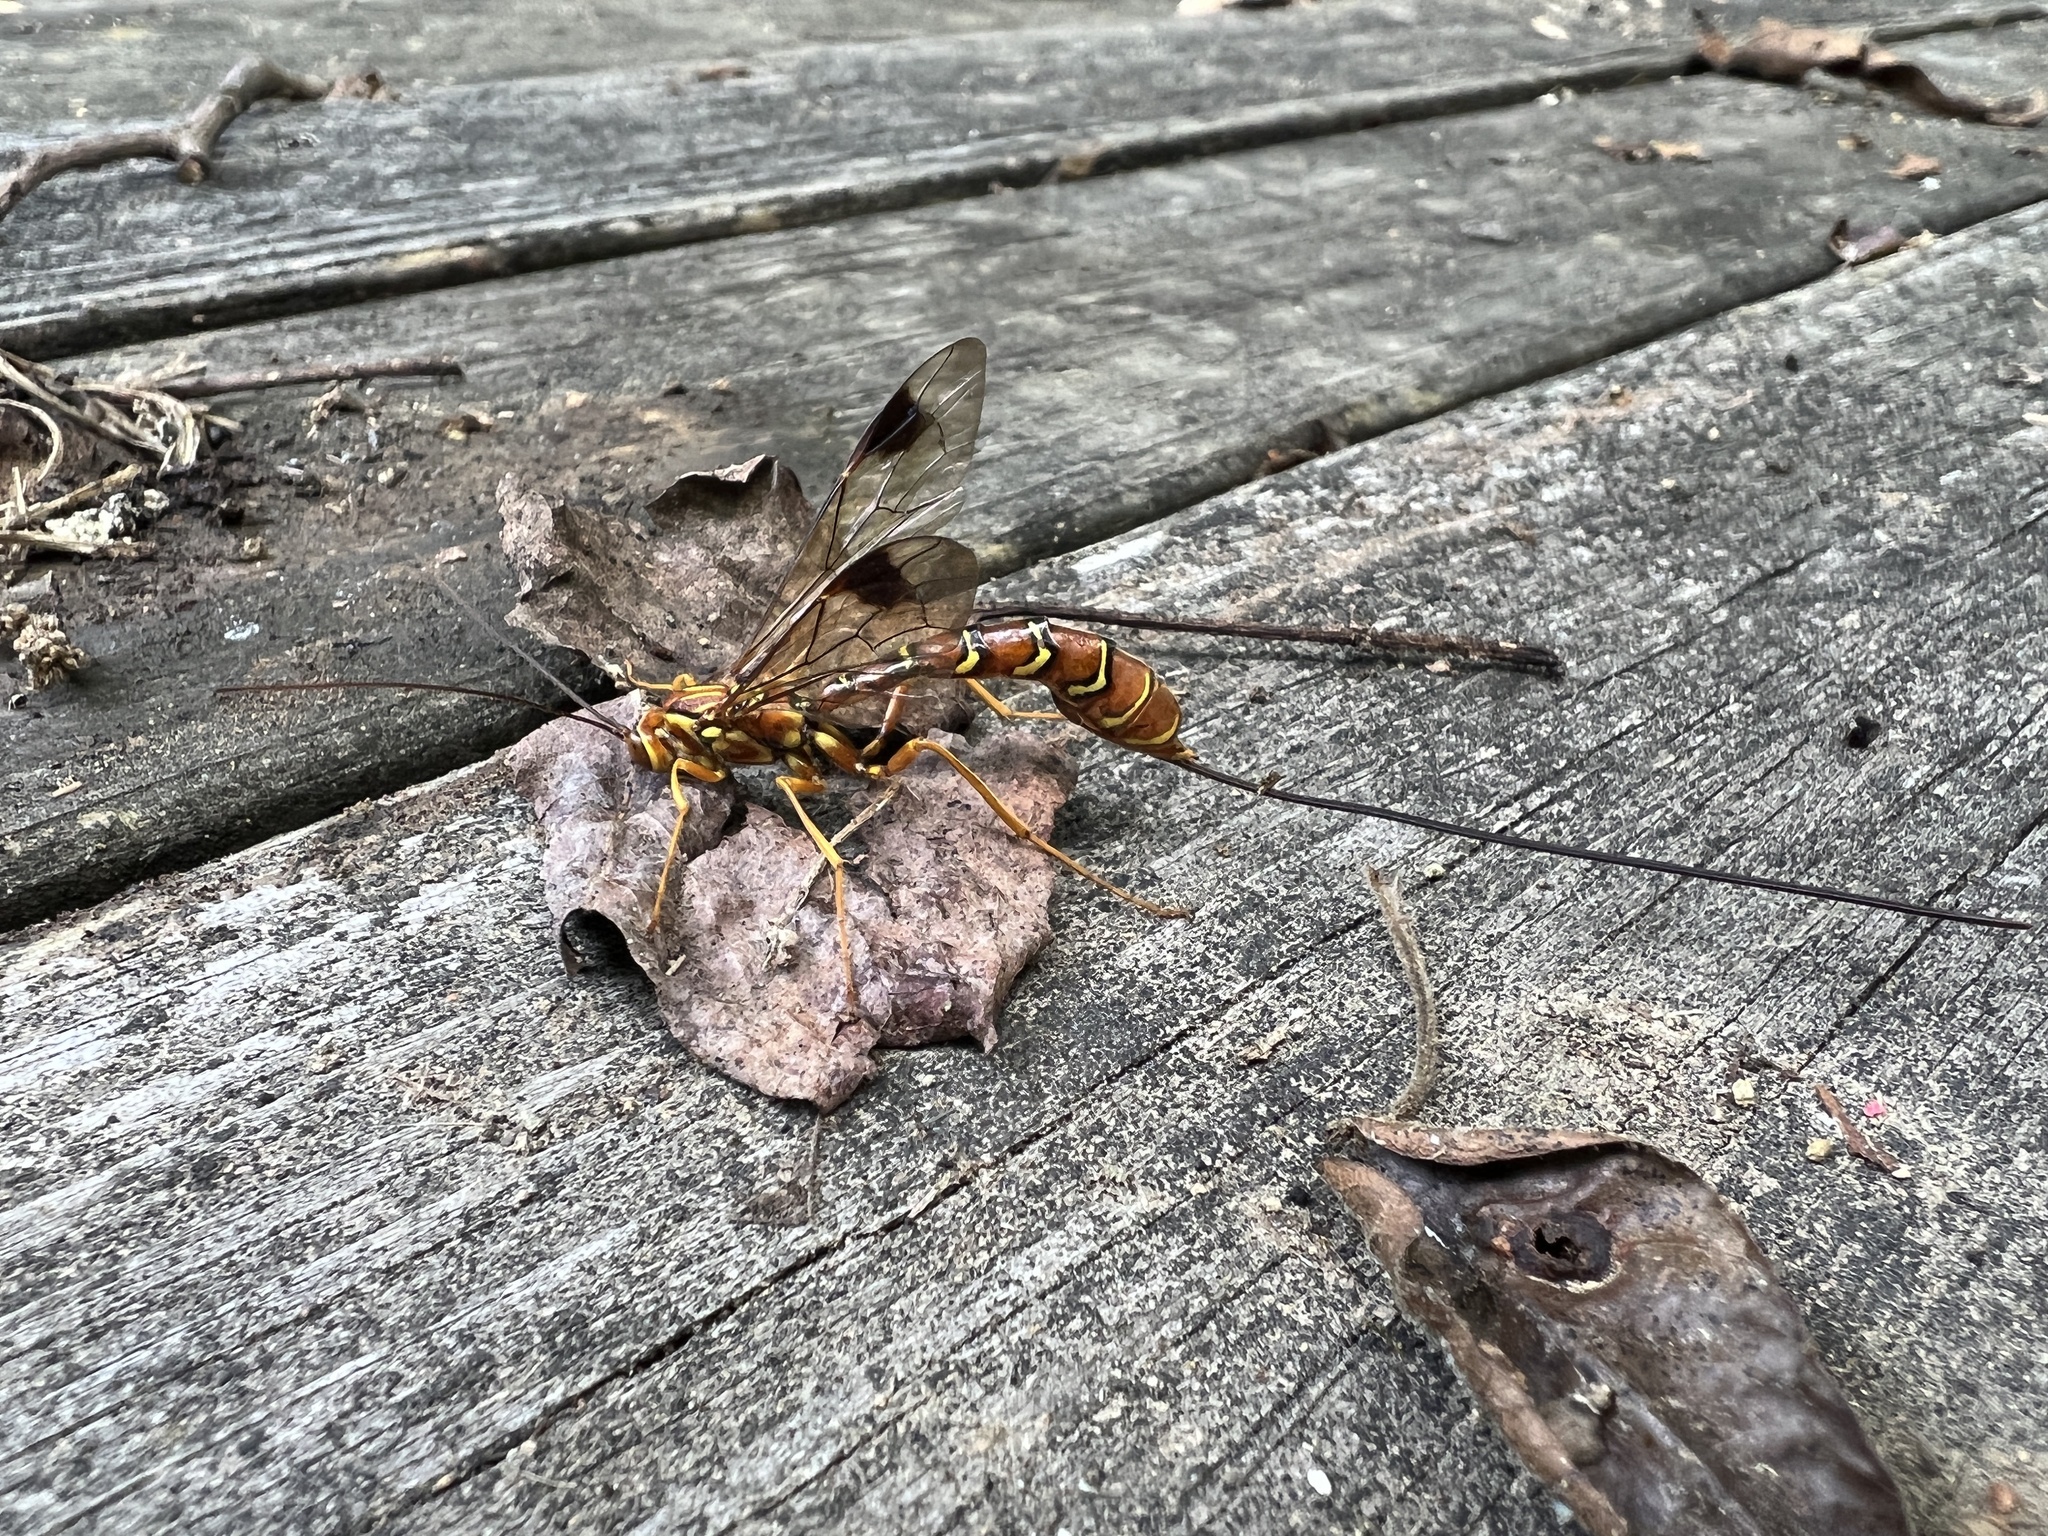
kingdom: Animalia
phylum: Arthropoda
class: Insecta
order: Hymenoptera
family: Ichneumonidae
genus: Megarhyssa
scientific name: Megarhyssa greenei
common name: Greene's giant ichneumonid wasp
